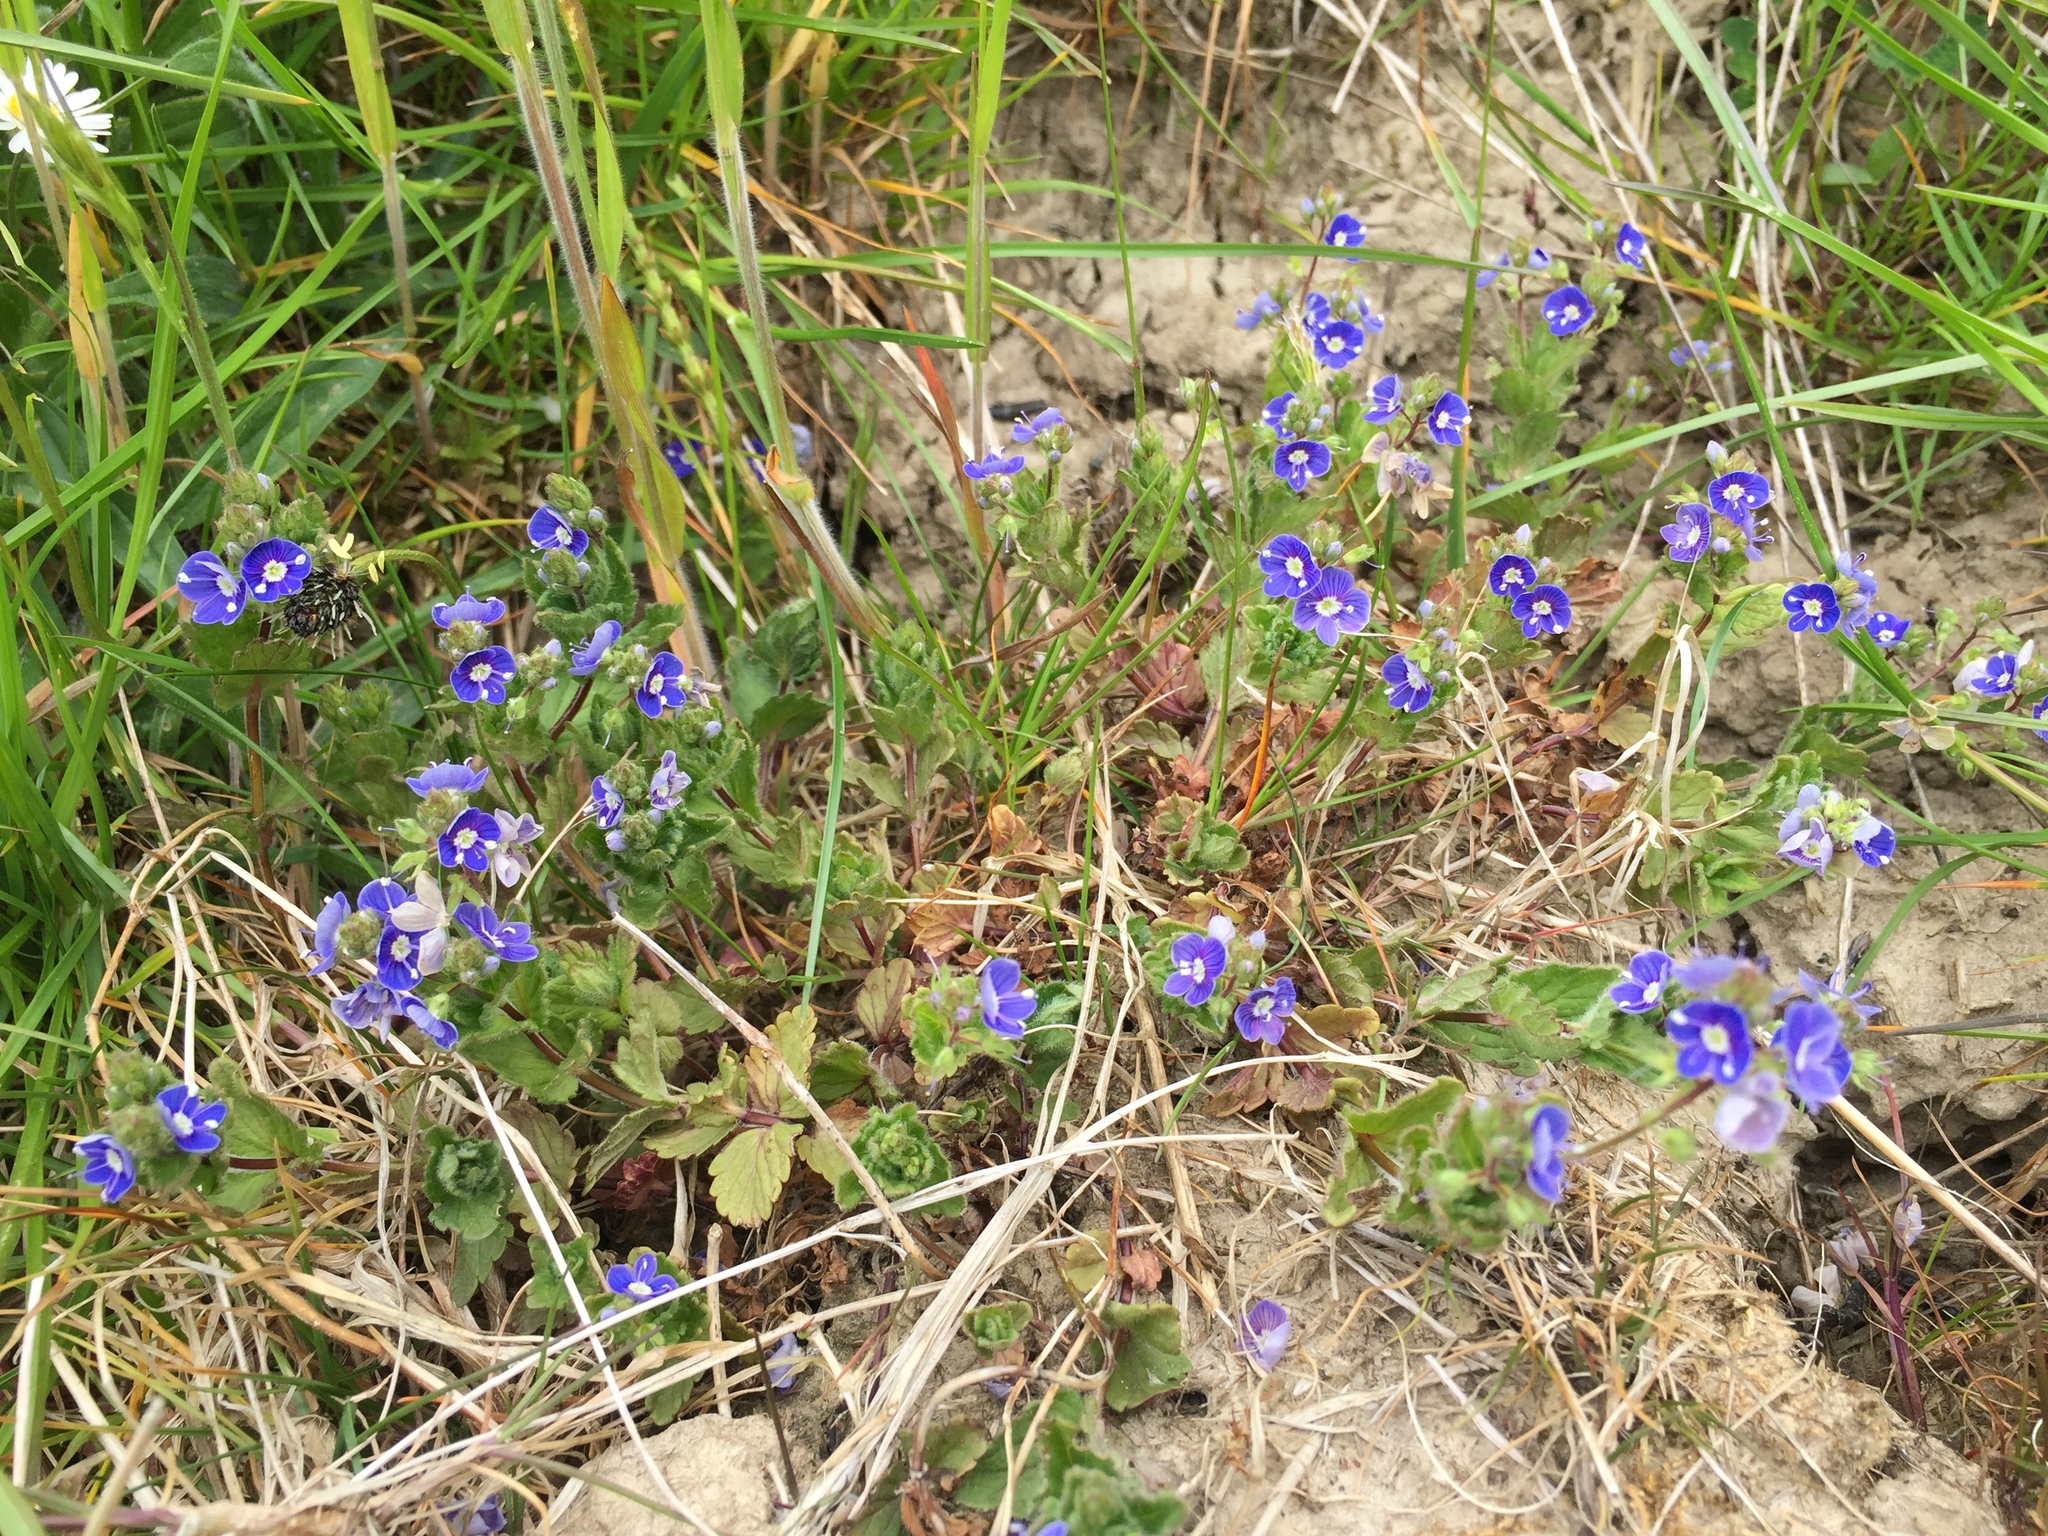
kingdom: Plantae
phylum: Tracheophyta
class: Magnoliopsida
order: Lamiales
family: Plantaginaceae
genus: Veronica
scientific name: Veronica chamaedrys
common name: Germander speedwell
